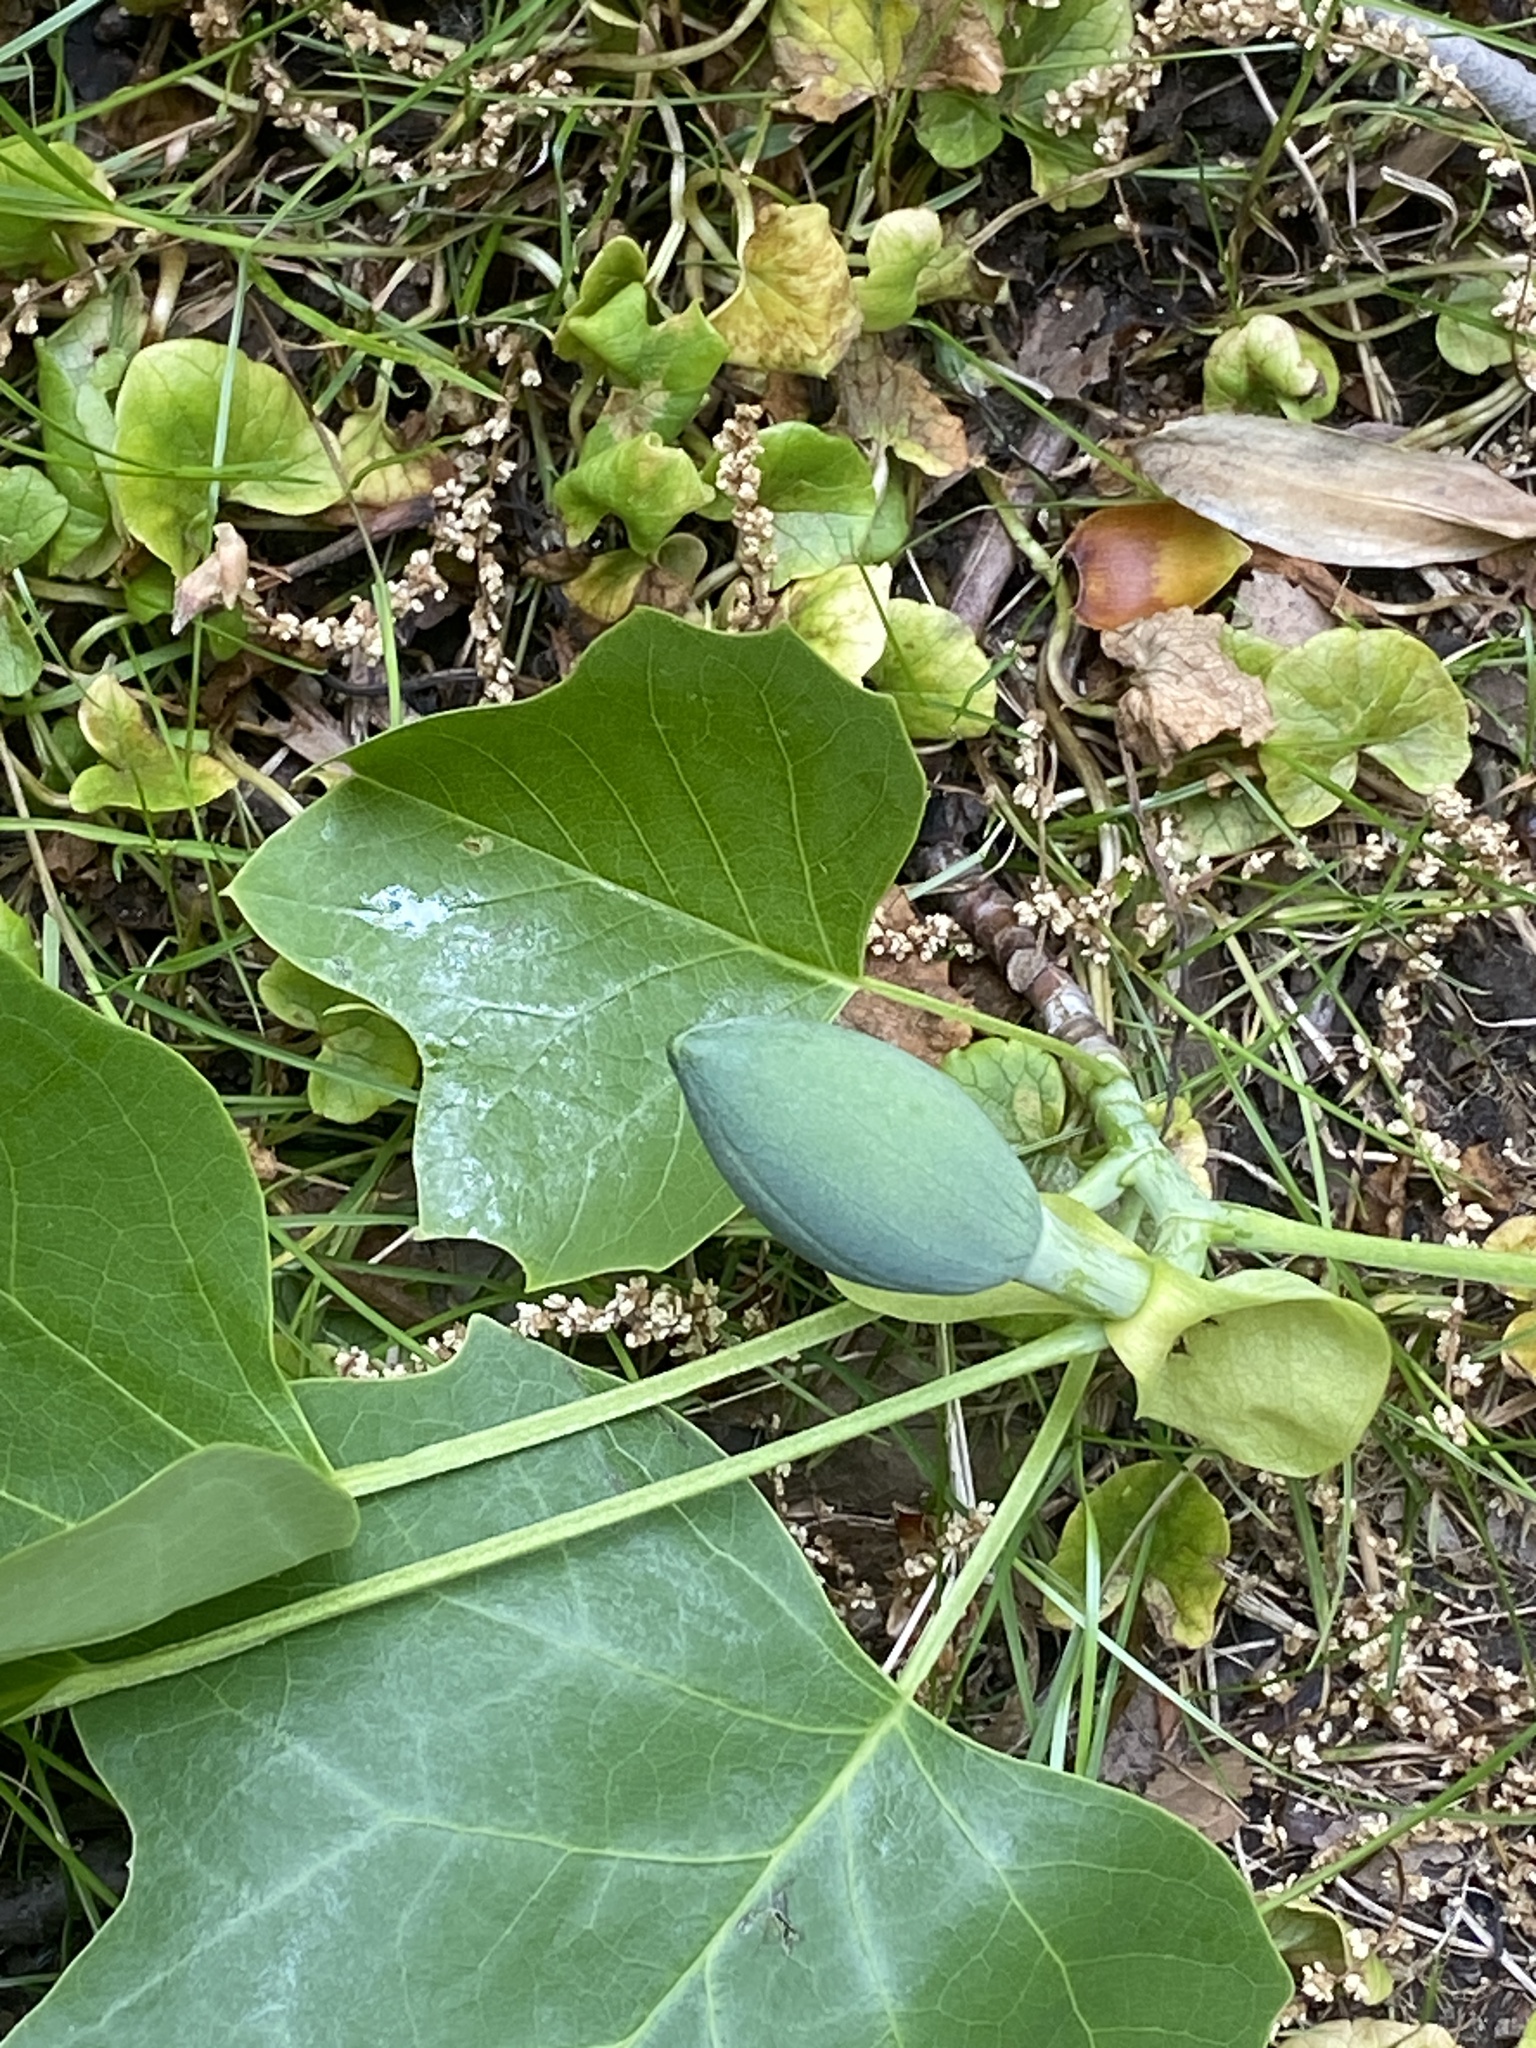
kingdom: Plantae
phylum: Tracheophyta
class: Magnoliopsida
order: Magnoliales
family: Magnoliaceae
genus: Liriodendron
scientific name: Liriodendron tulipifera
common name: Tulip tree
